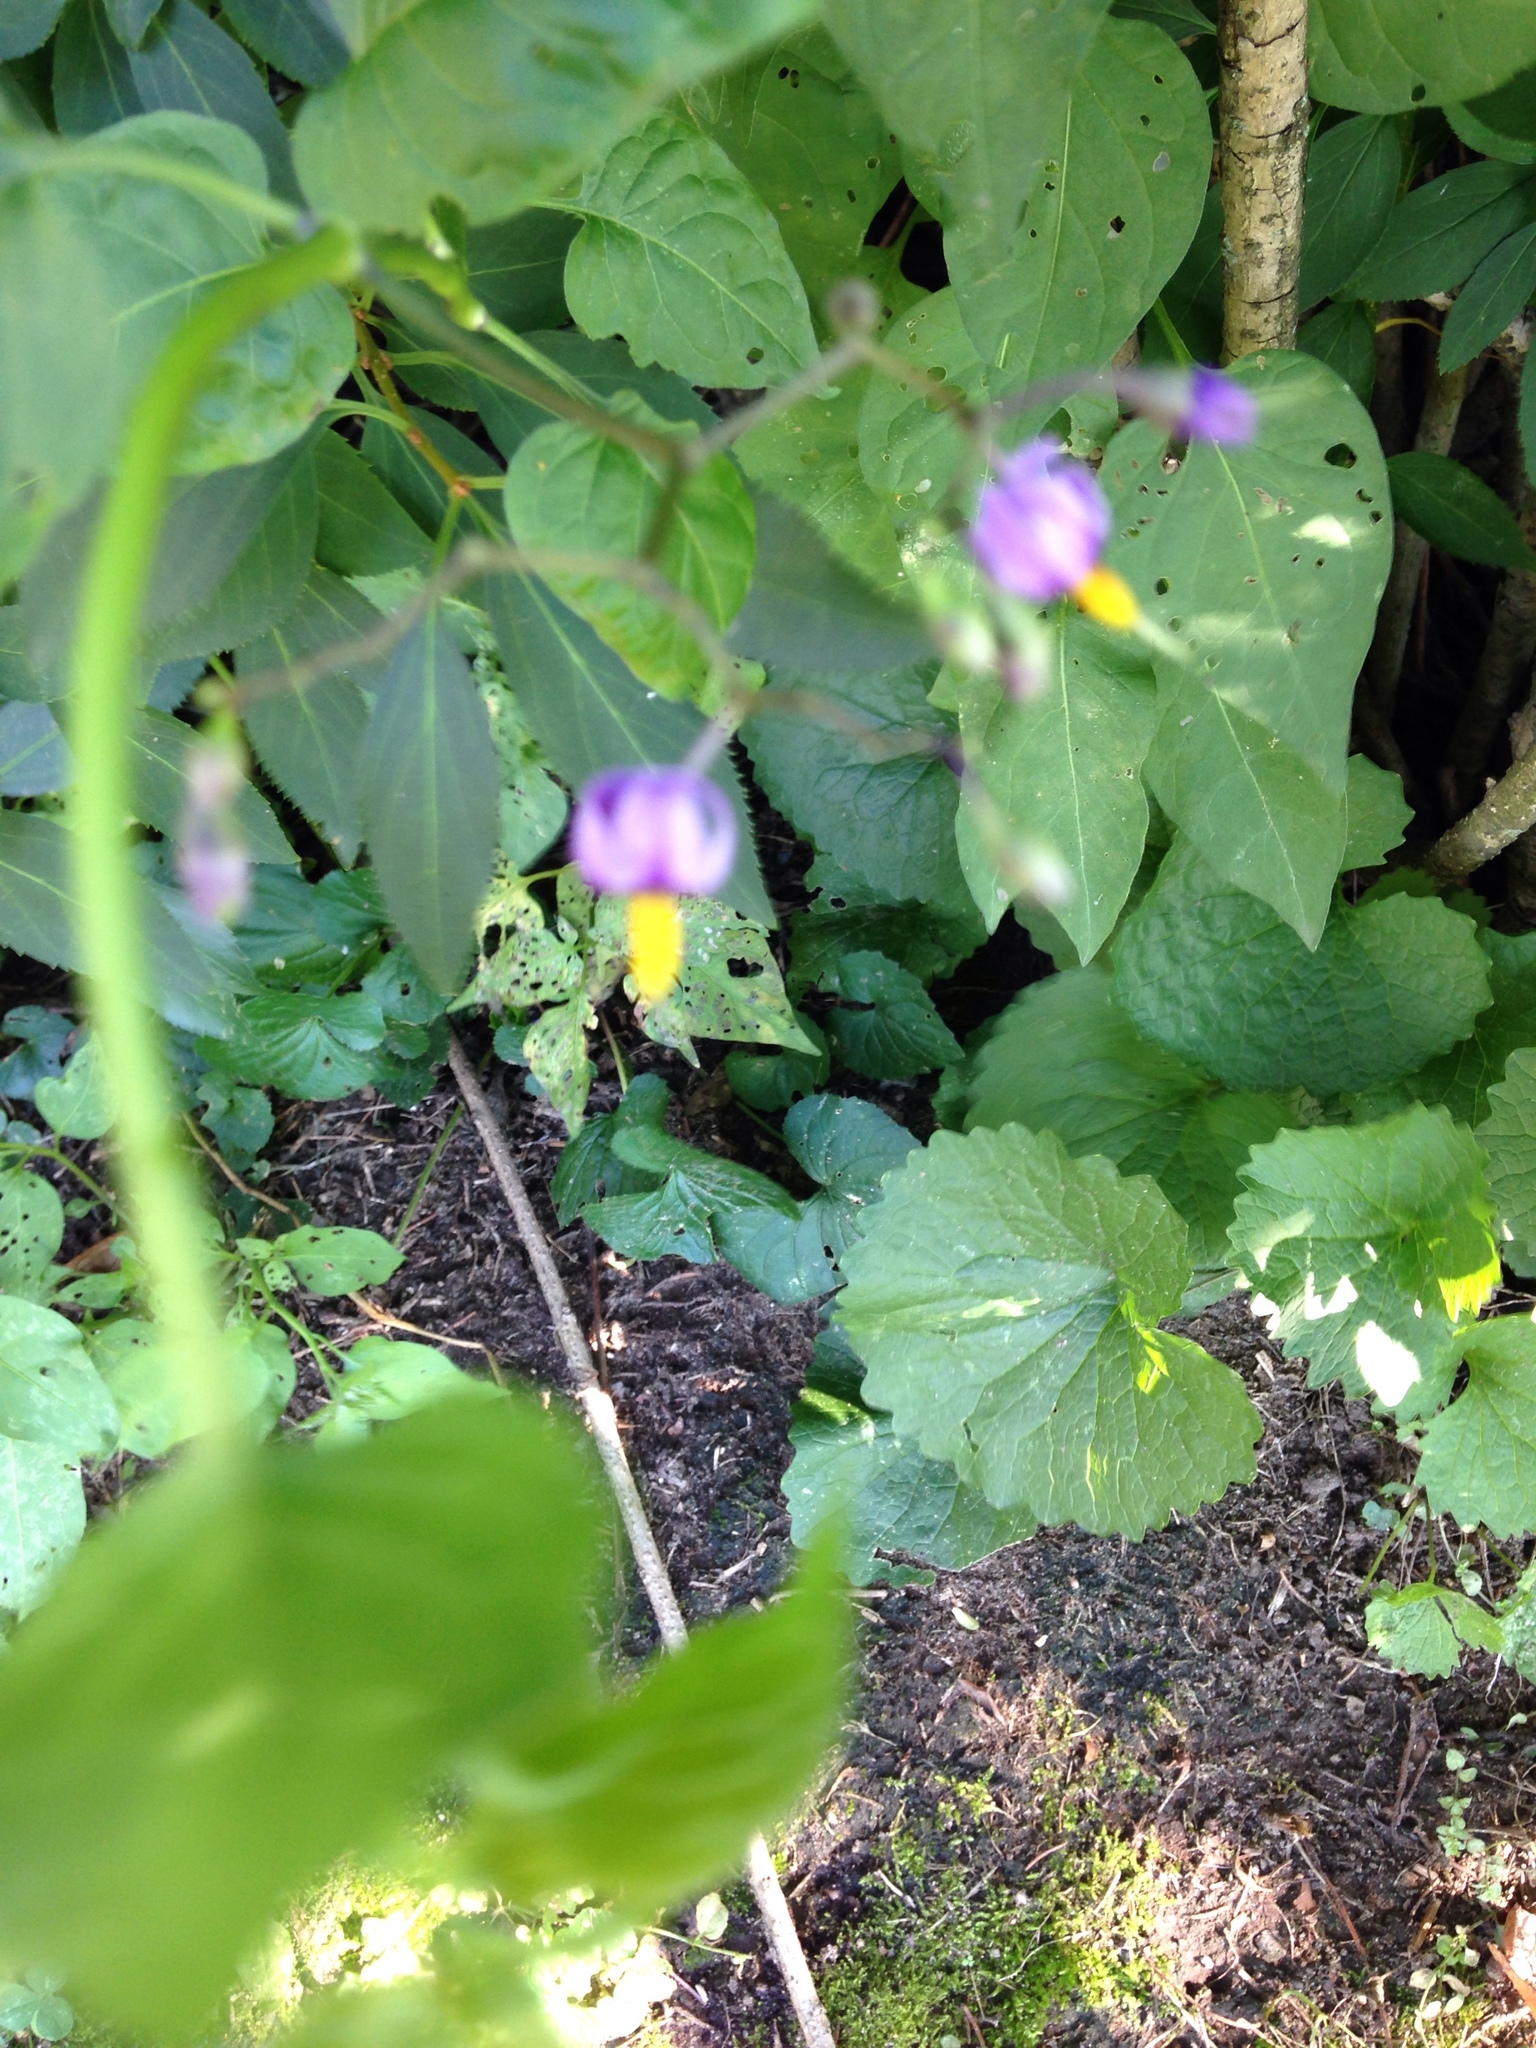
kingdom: Plantae
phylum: Tracheophyta
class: Magnoliopsida
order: Solanales
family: Solanaceae
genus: Solanum
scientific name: Solanum dulcamara
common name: Climbing nightshade
